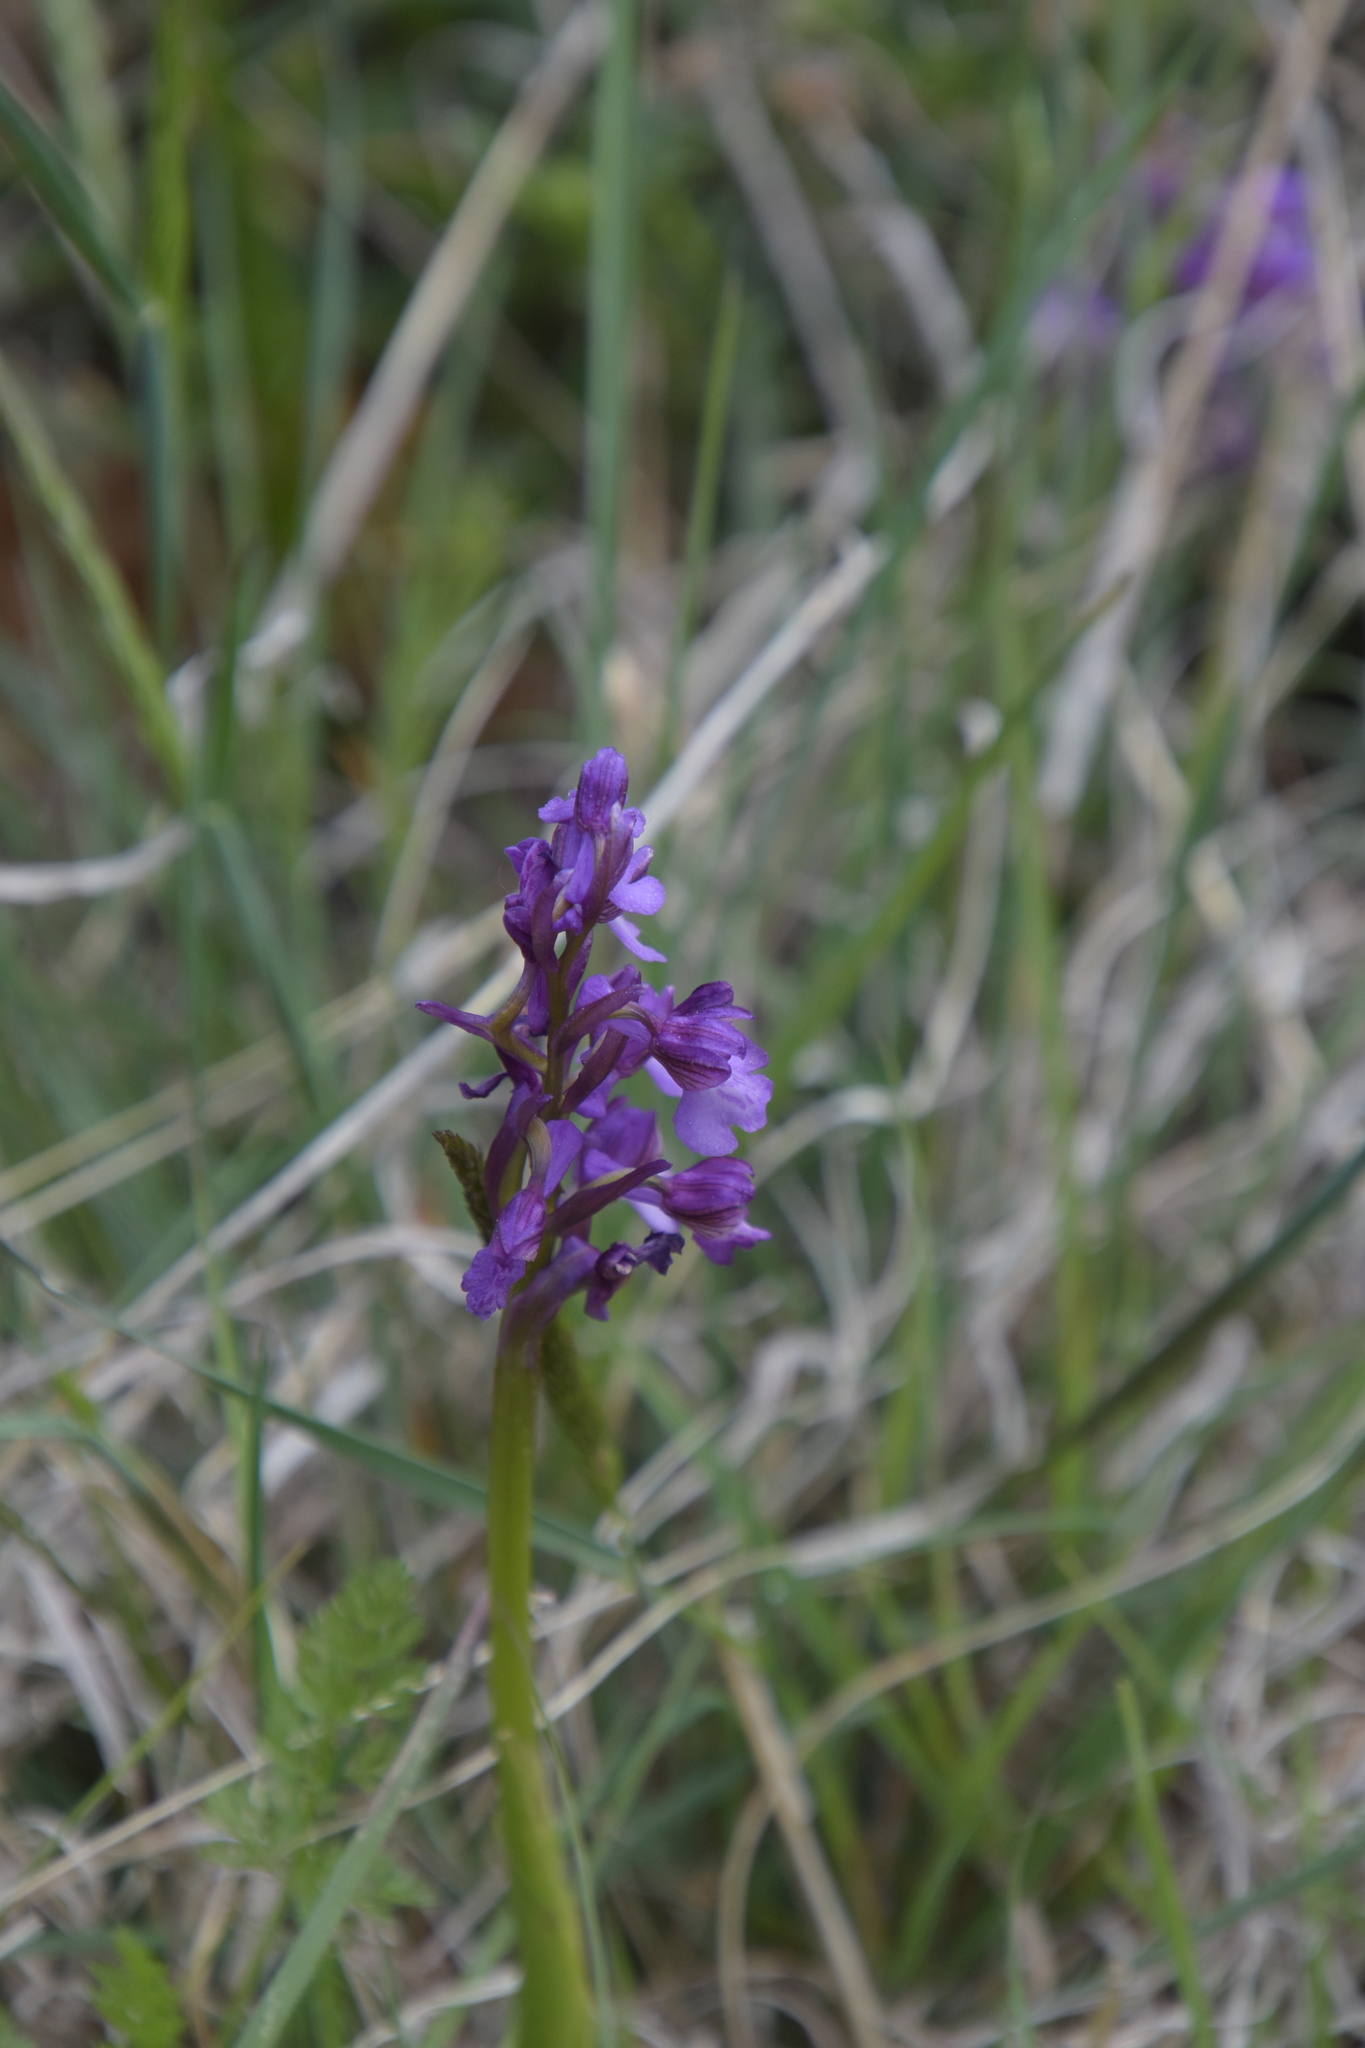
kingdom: Plantae
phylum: Tracheophyta
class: Liliopsida
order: Asparagales
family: Orchidaceae
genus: Anacamptis
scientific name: Anacamptis morio
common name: Green-winged orchid
